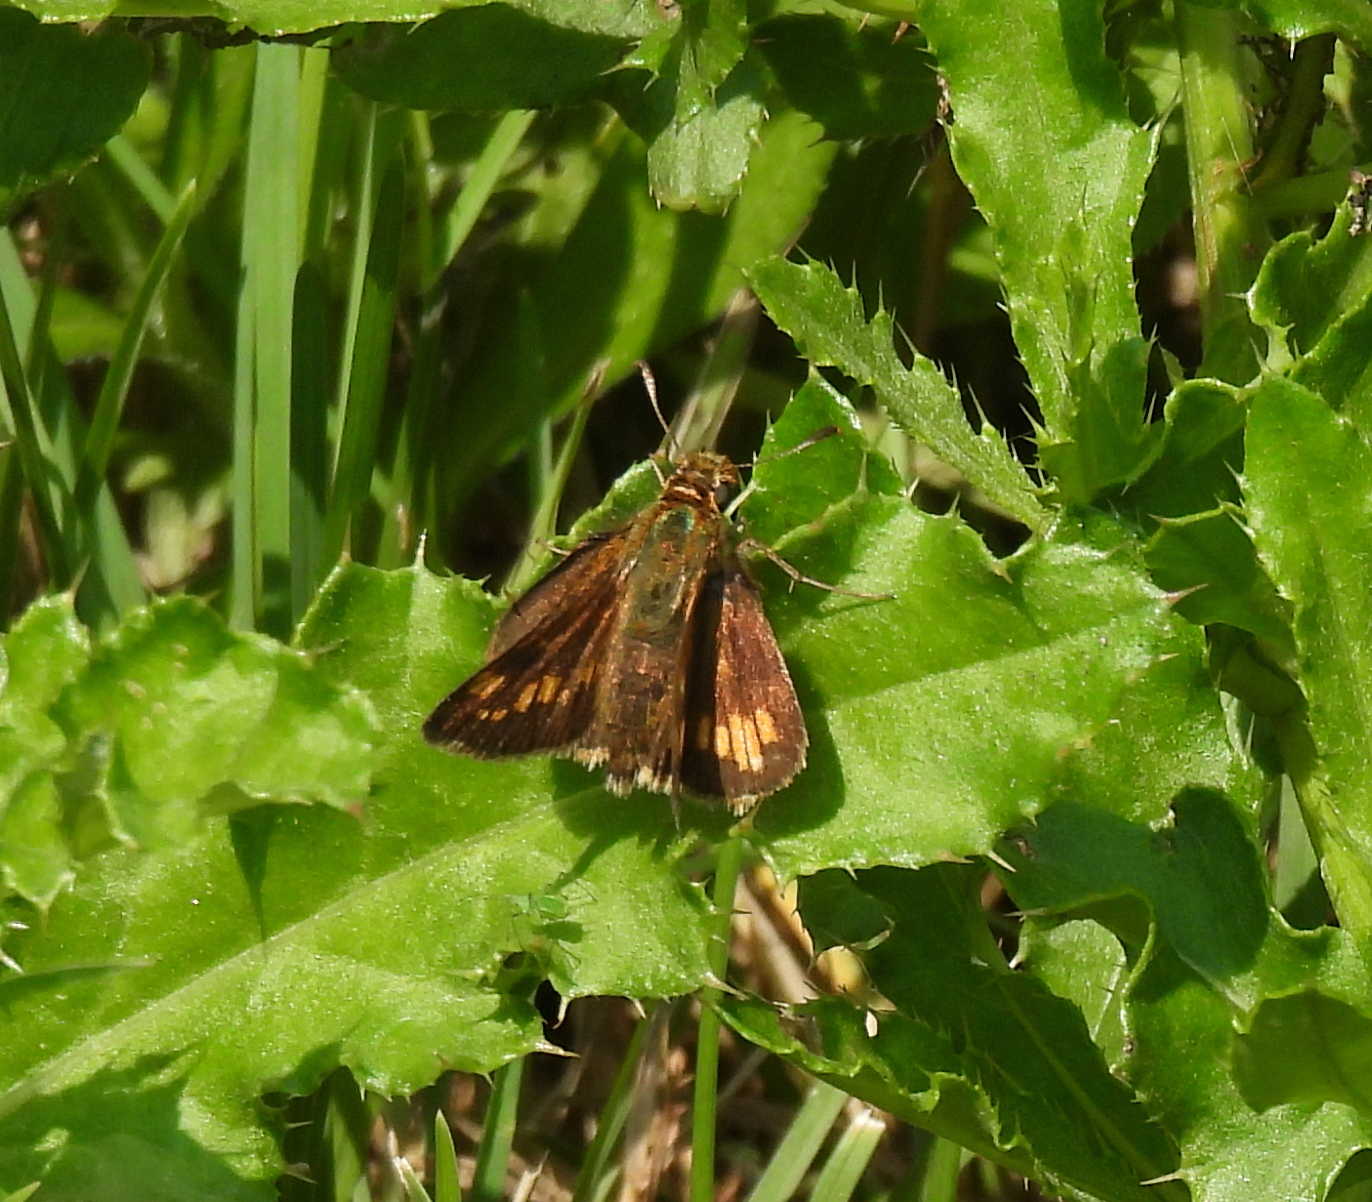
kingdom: Animalia
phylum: Arthropoda
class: Insecta
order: Lepidoptera
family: Hesperiidae
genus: Polites
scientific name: Polites coras
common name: Peck's skipper
